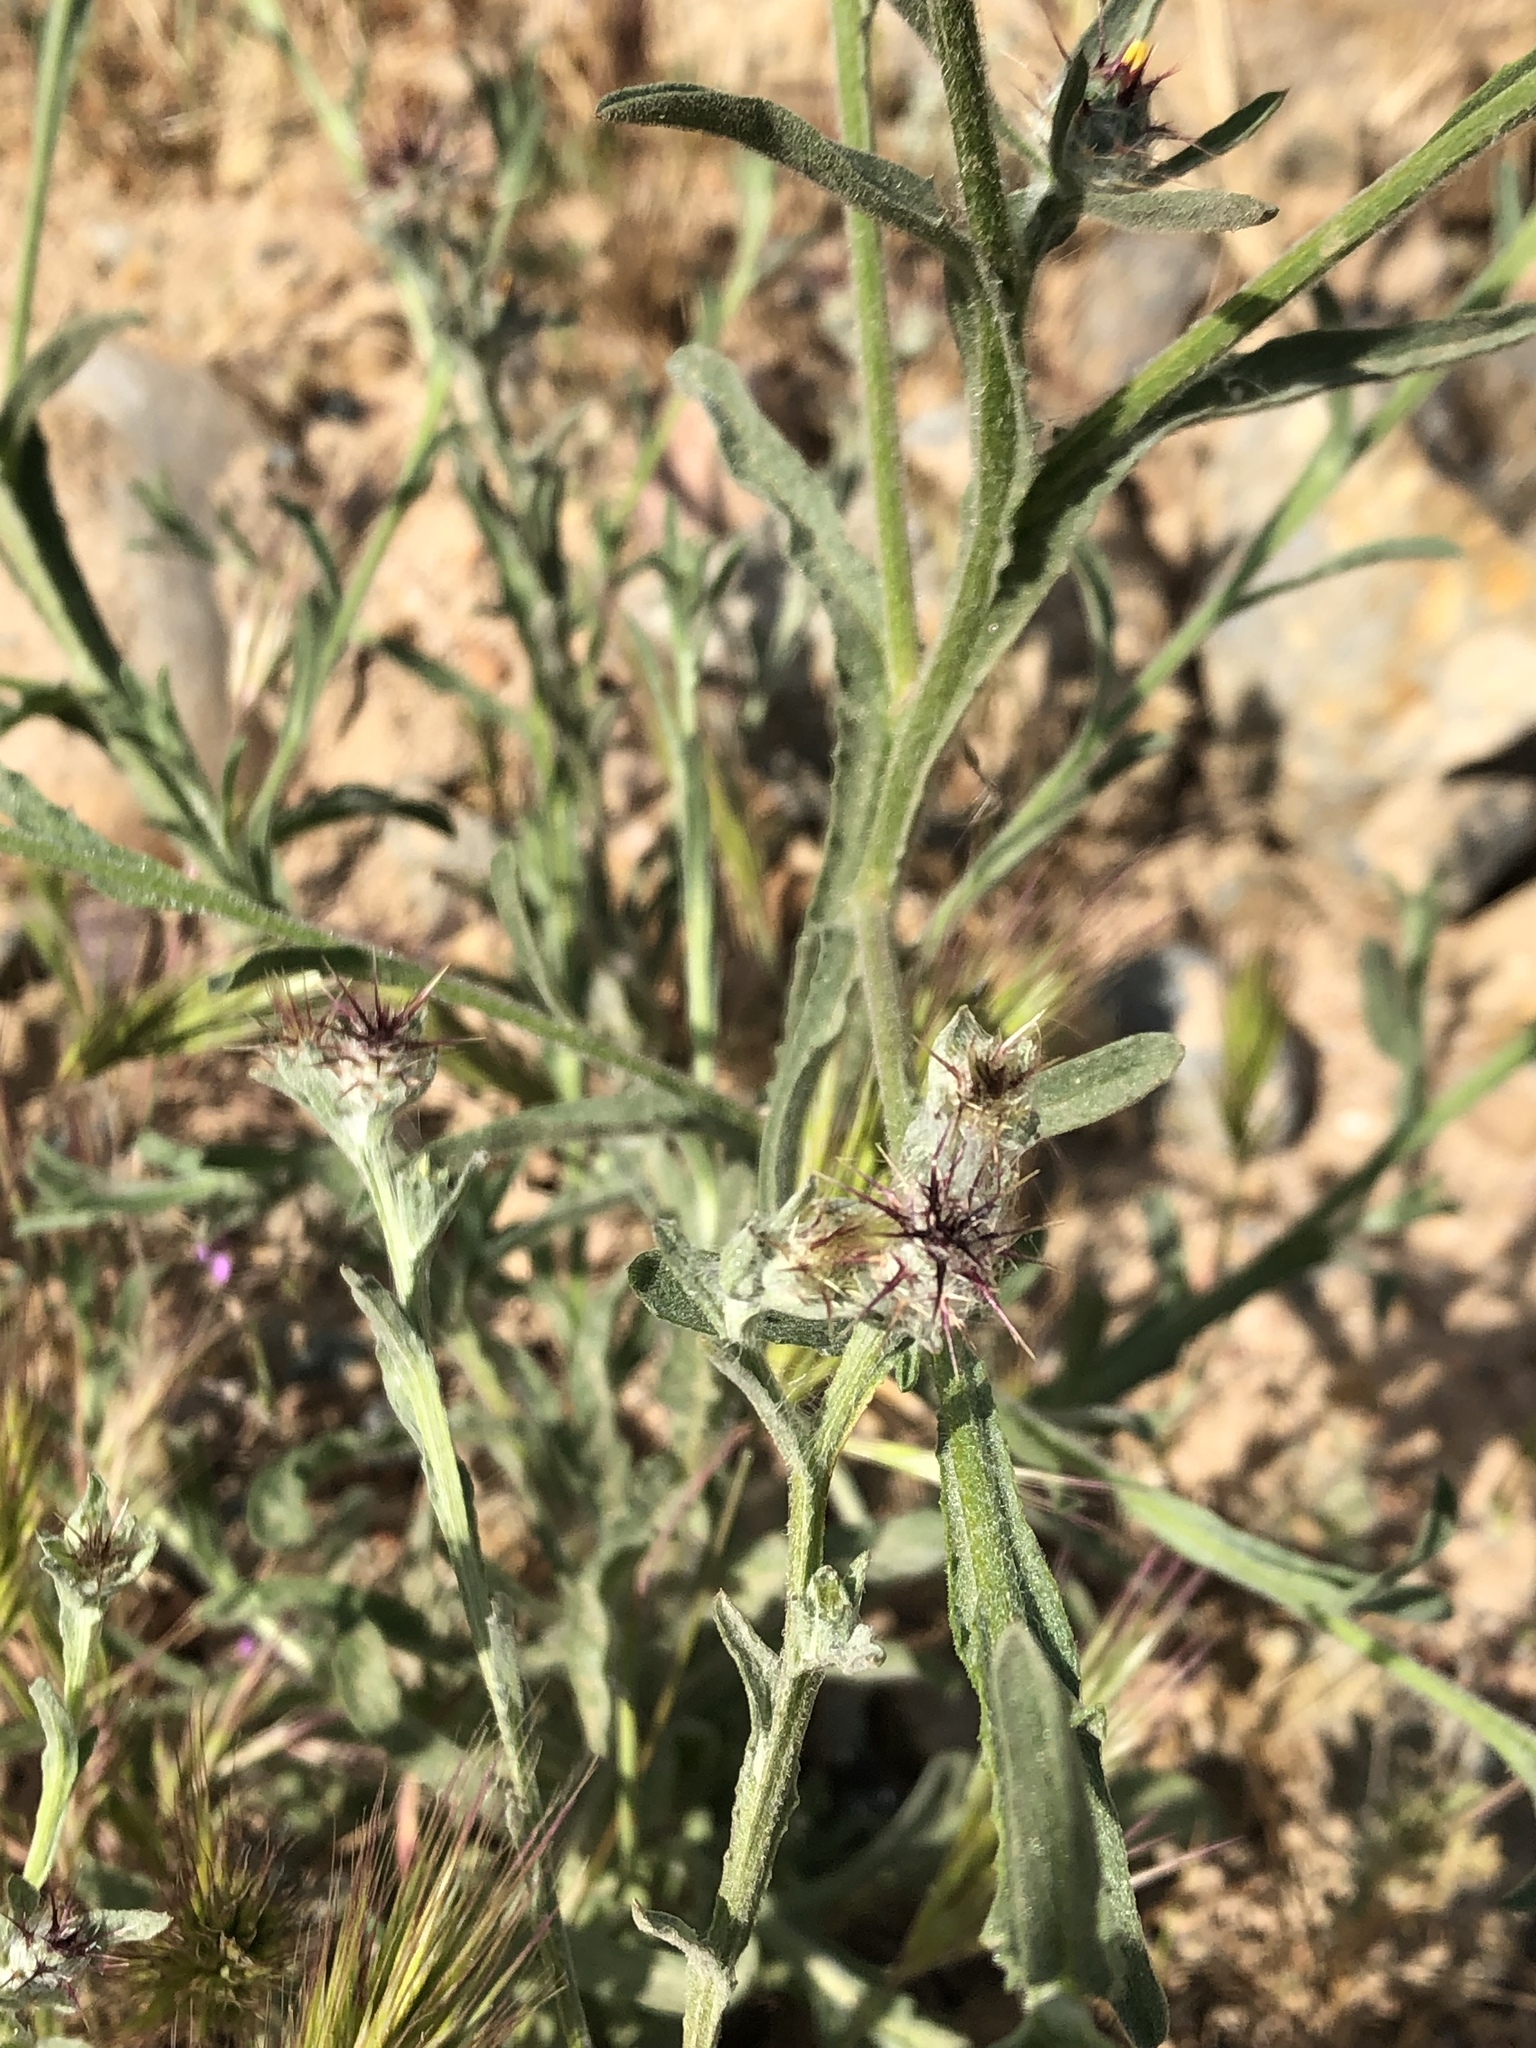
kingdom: Plantae
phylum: Tracheophyta
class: Magnoliopsida
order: Asterales
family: Asteraceae
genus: Centaurea
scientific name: Centaurea melitensis
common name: Maltese star-thistle
